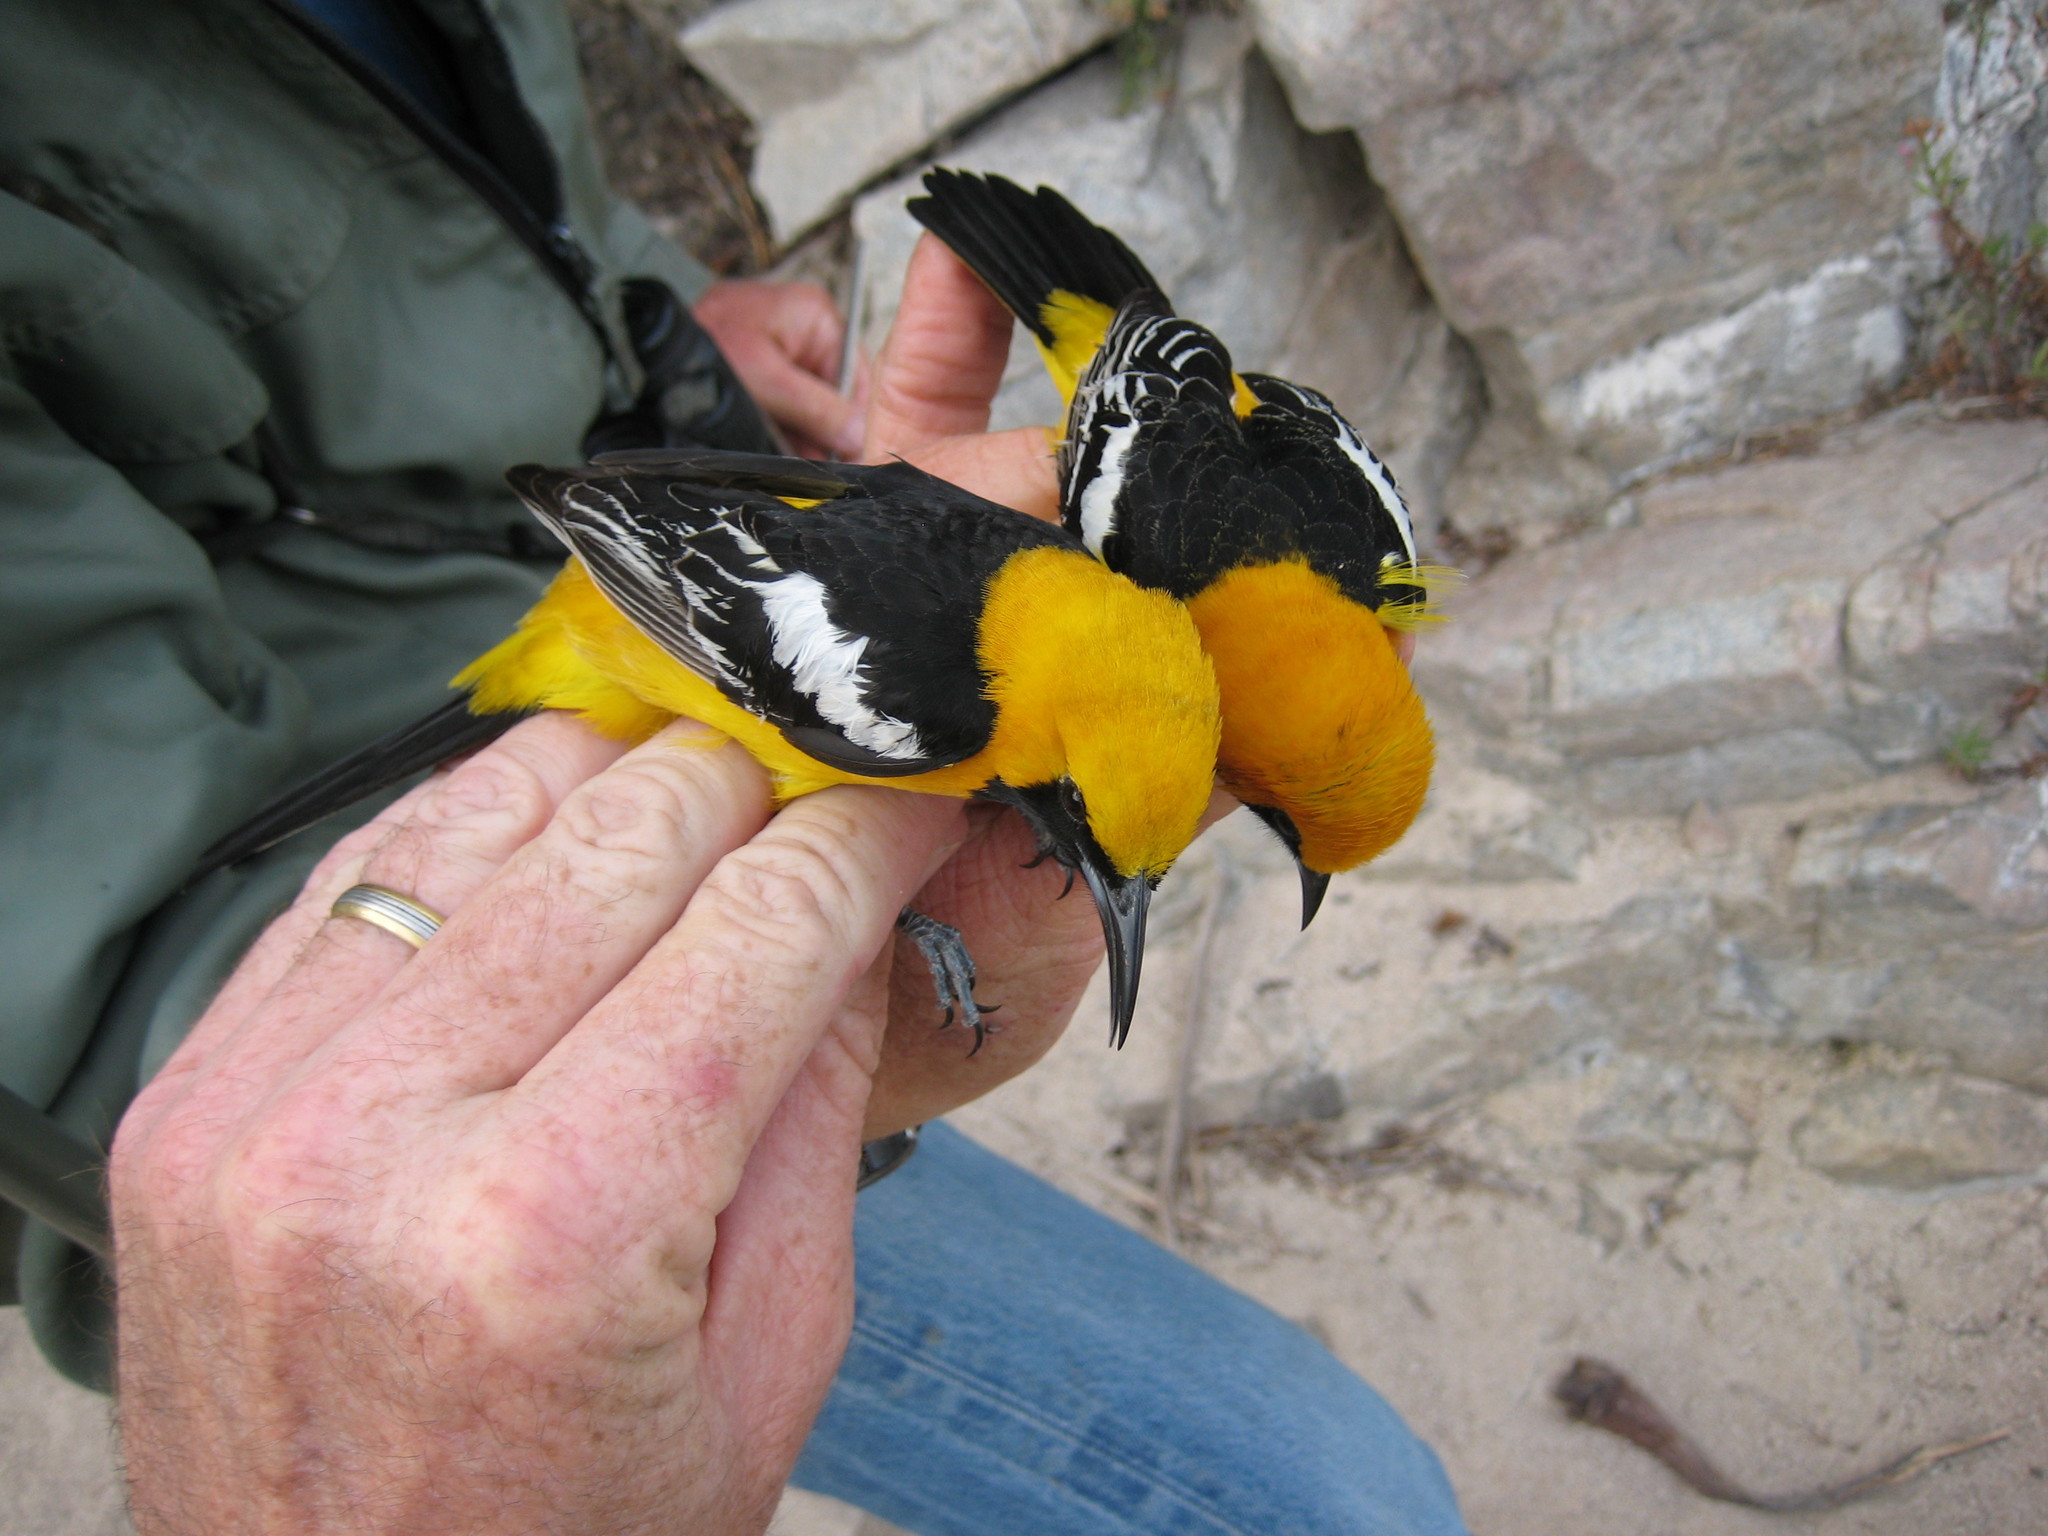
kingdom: Animalia
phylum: Chordata
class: Aves
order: Passeriformes
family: Icteridae
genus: Icterus
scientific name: Icterus cucullatus
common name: Hooded oriole
